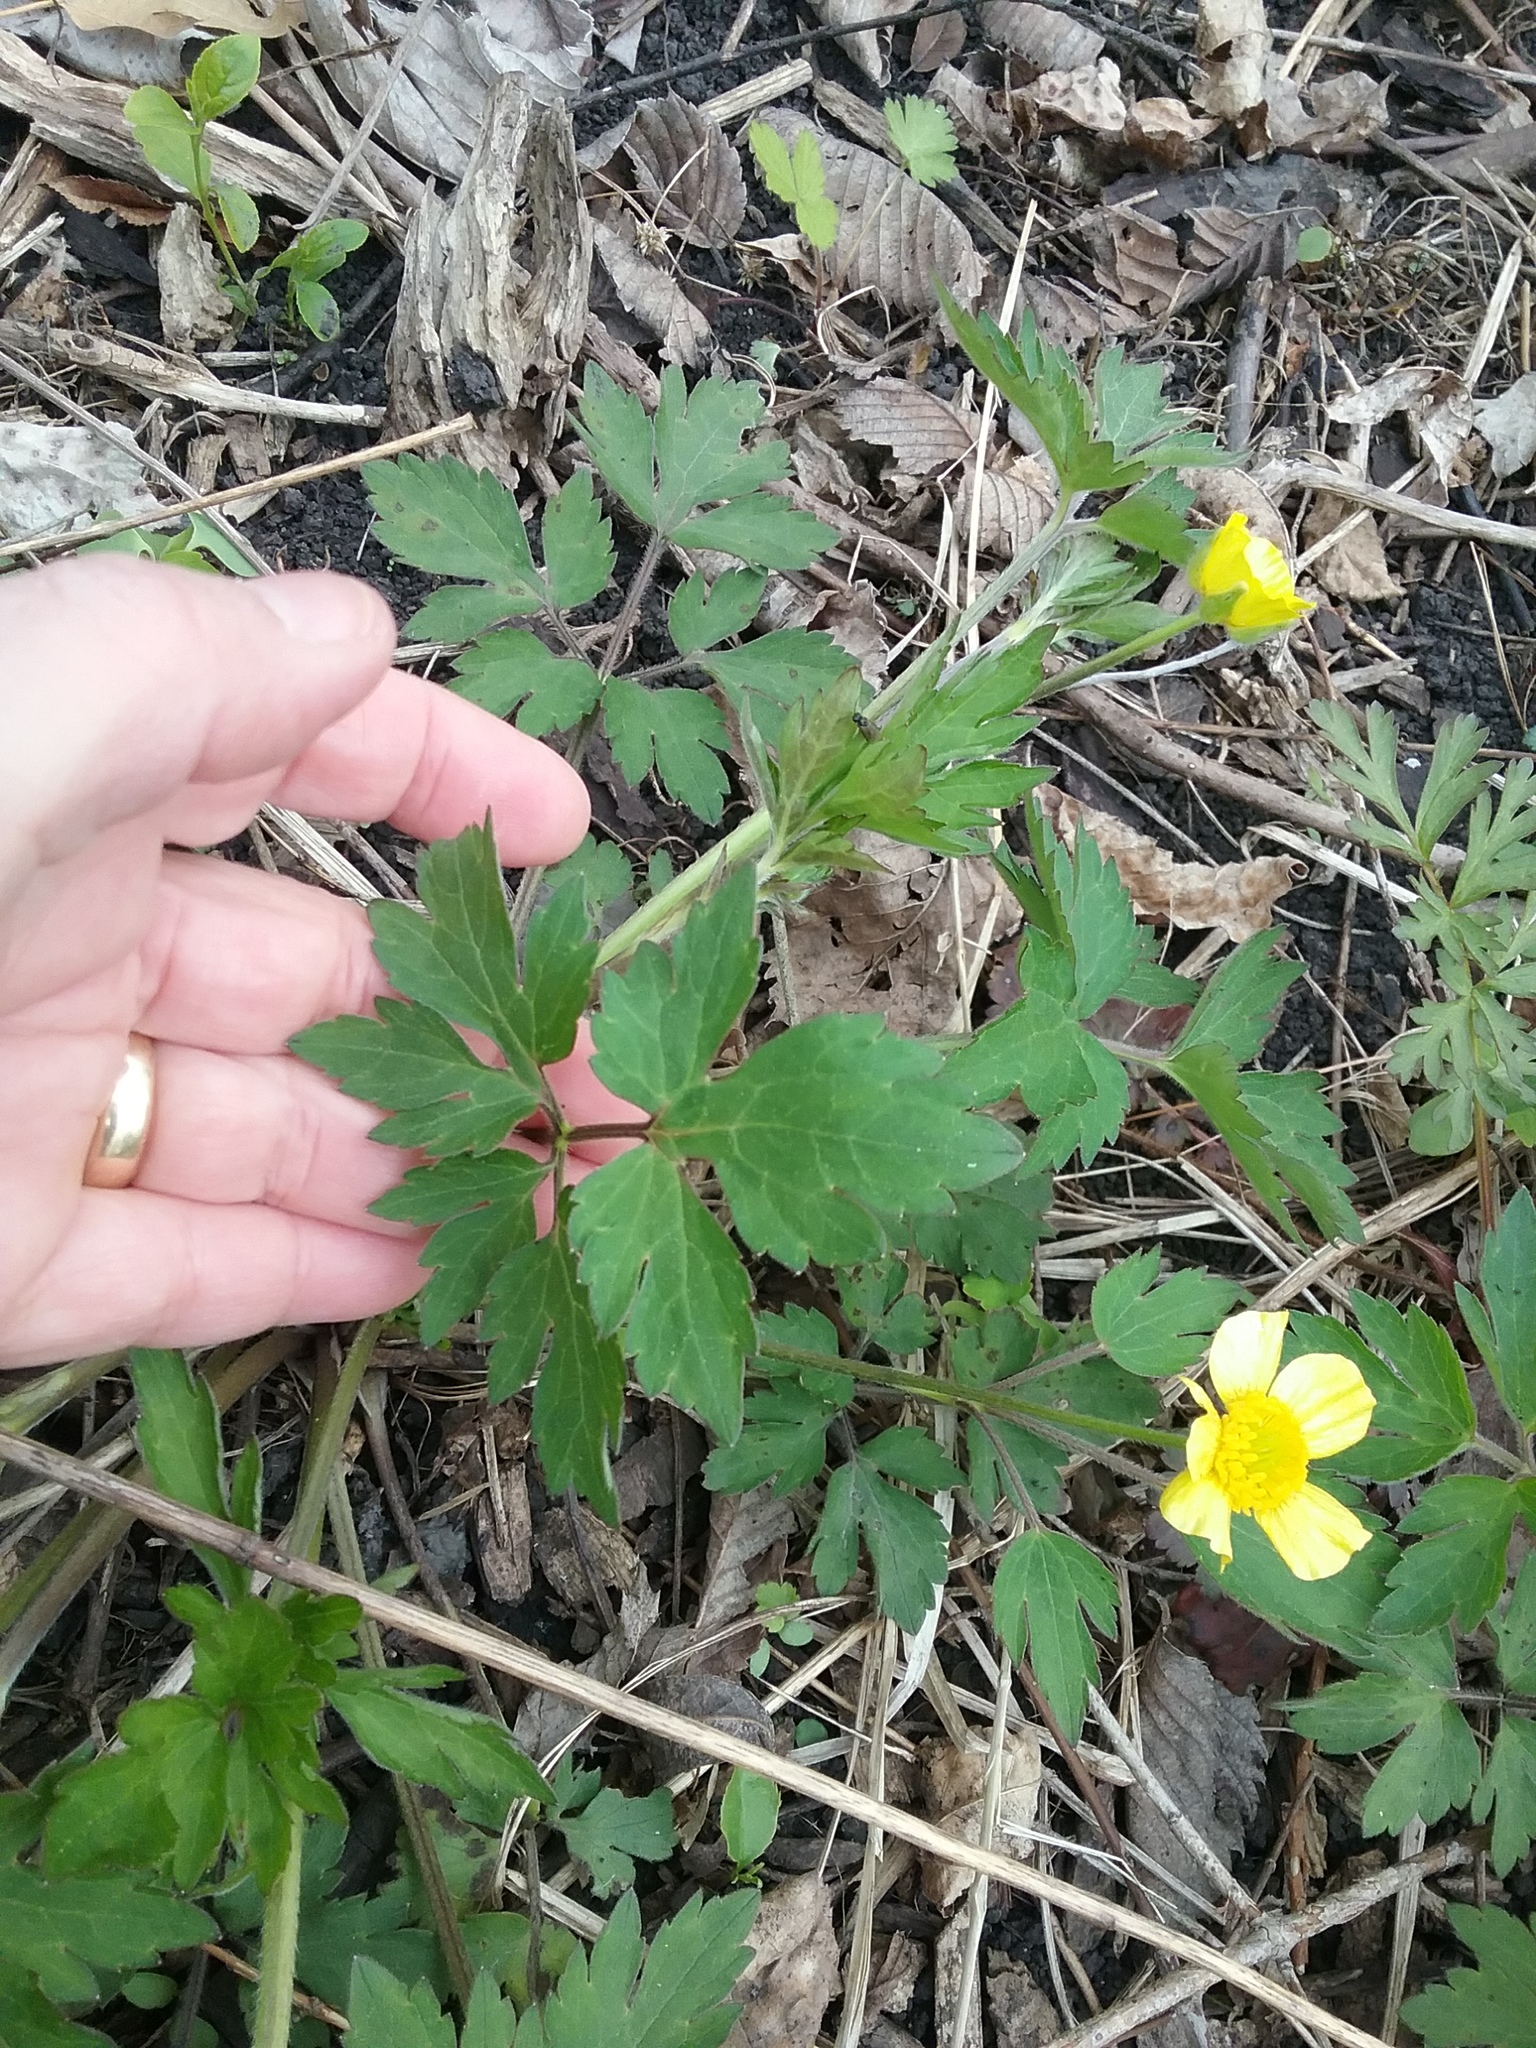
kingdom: Plantae
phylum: Tracheophyta
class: Magnoliopsida
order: Ranunculales
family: Ranunculaceae
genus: Ranunculus
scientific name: Ranunculus hispidus
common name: Bristly buttercup
